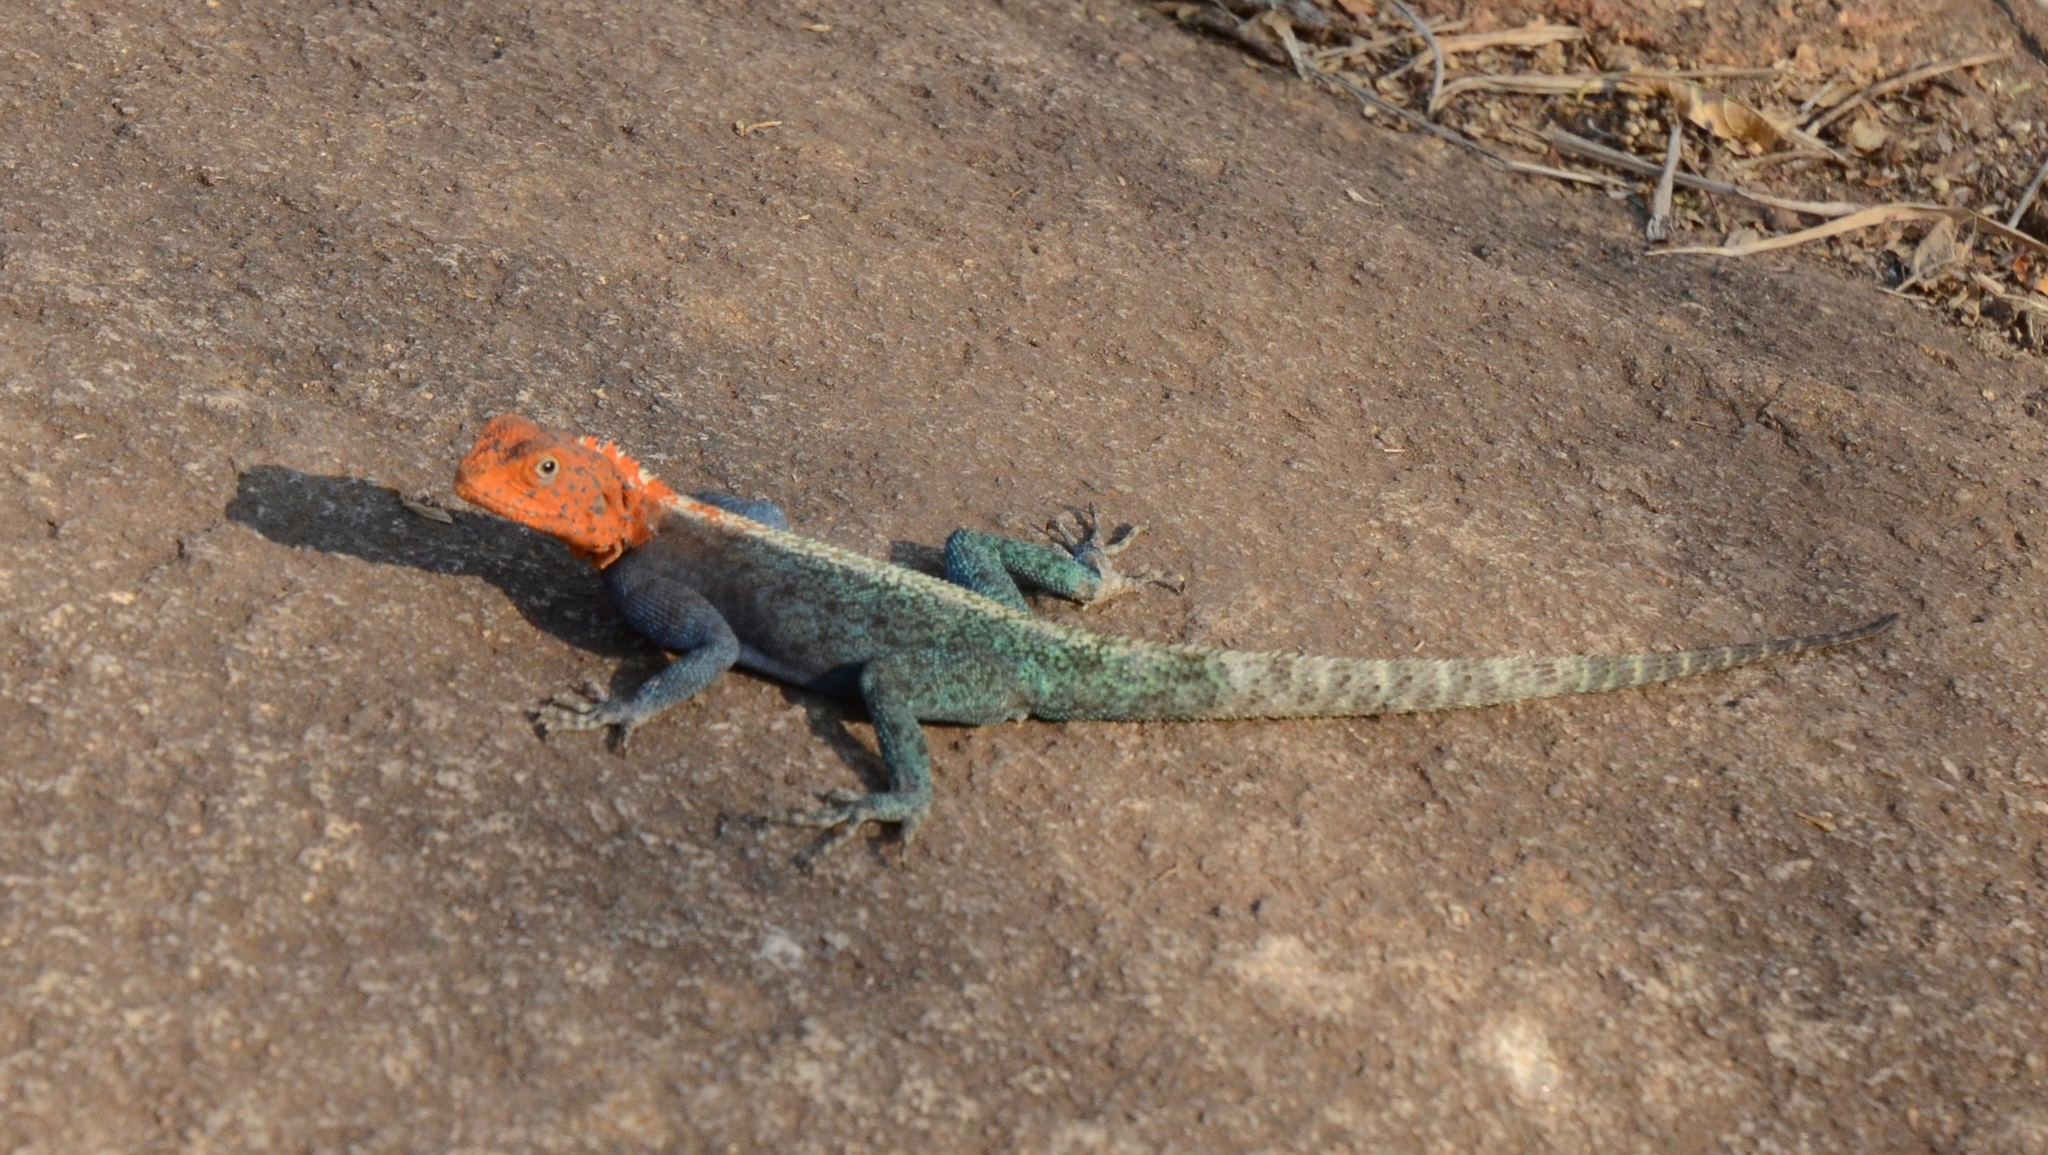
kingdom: Animalia
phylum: Chordata
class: Squamata
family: Agamidae
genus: Agama
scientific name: Agama kirkii
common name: Kirk's rock agama
